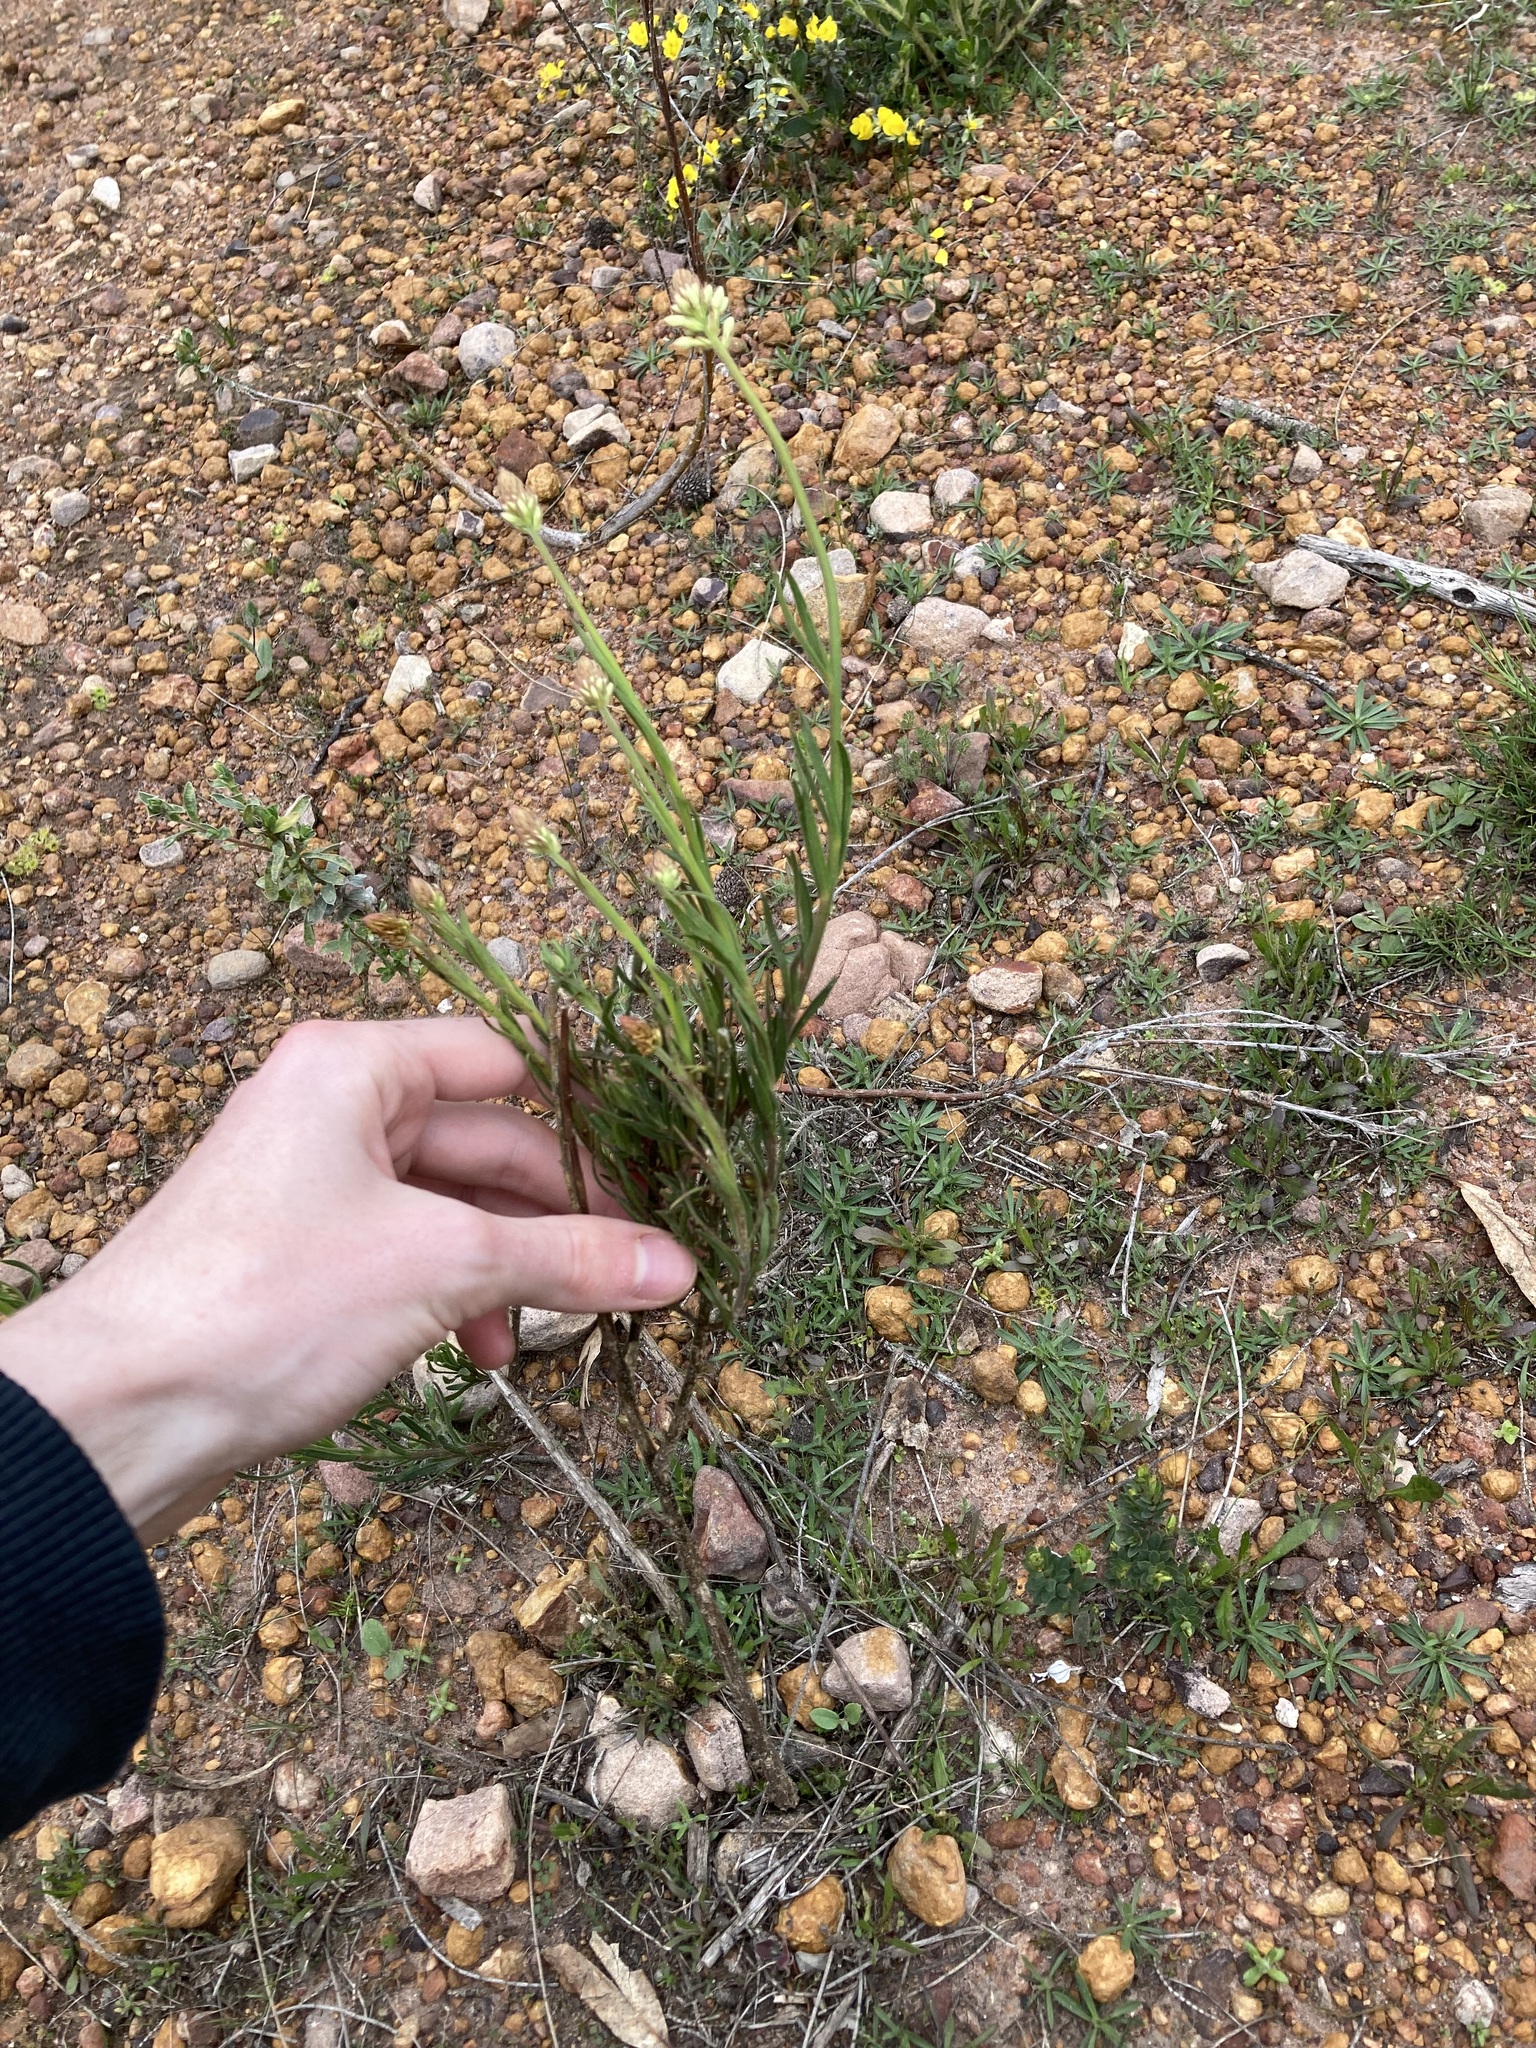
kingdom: Plantae
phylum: Tracheophyta
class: Magnoliopsida
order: Celastrales
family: Celastraceae
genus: Stackhousia
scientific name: Stackhousia monogyna
